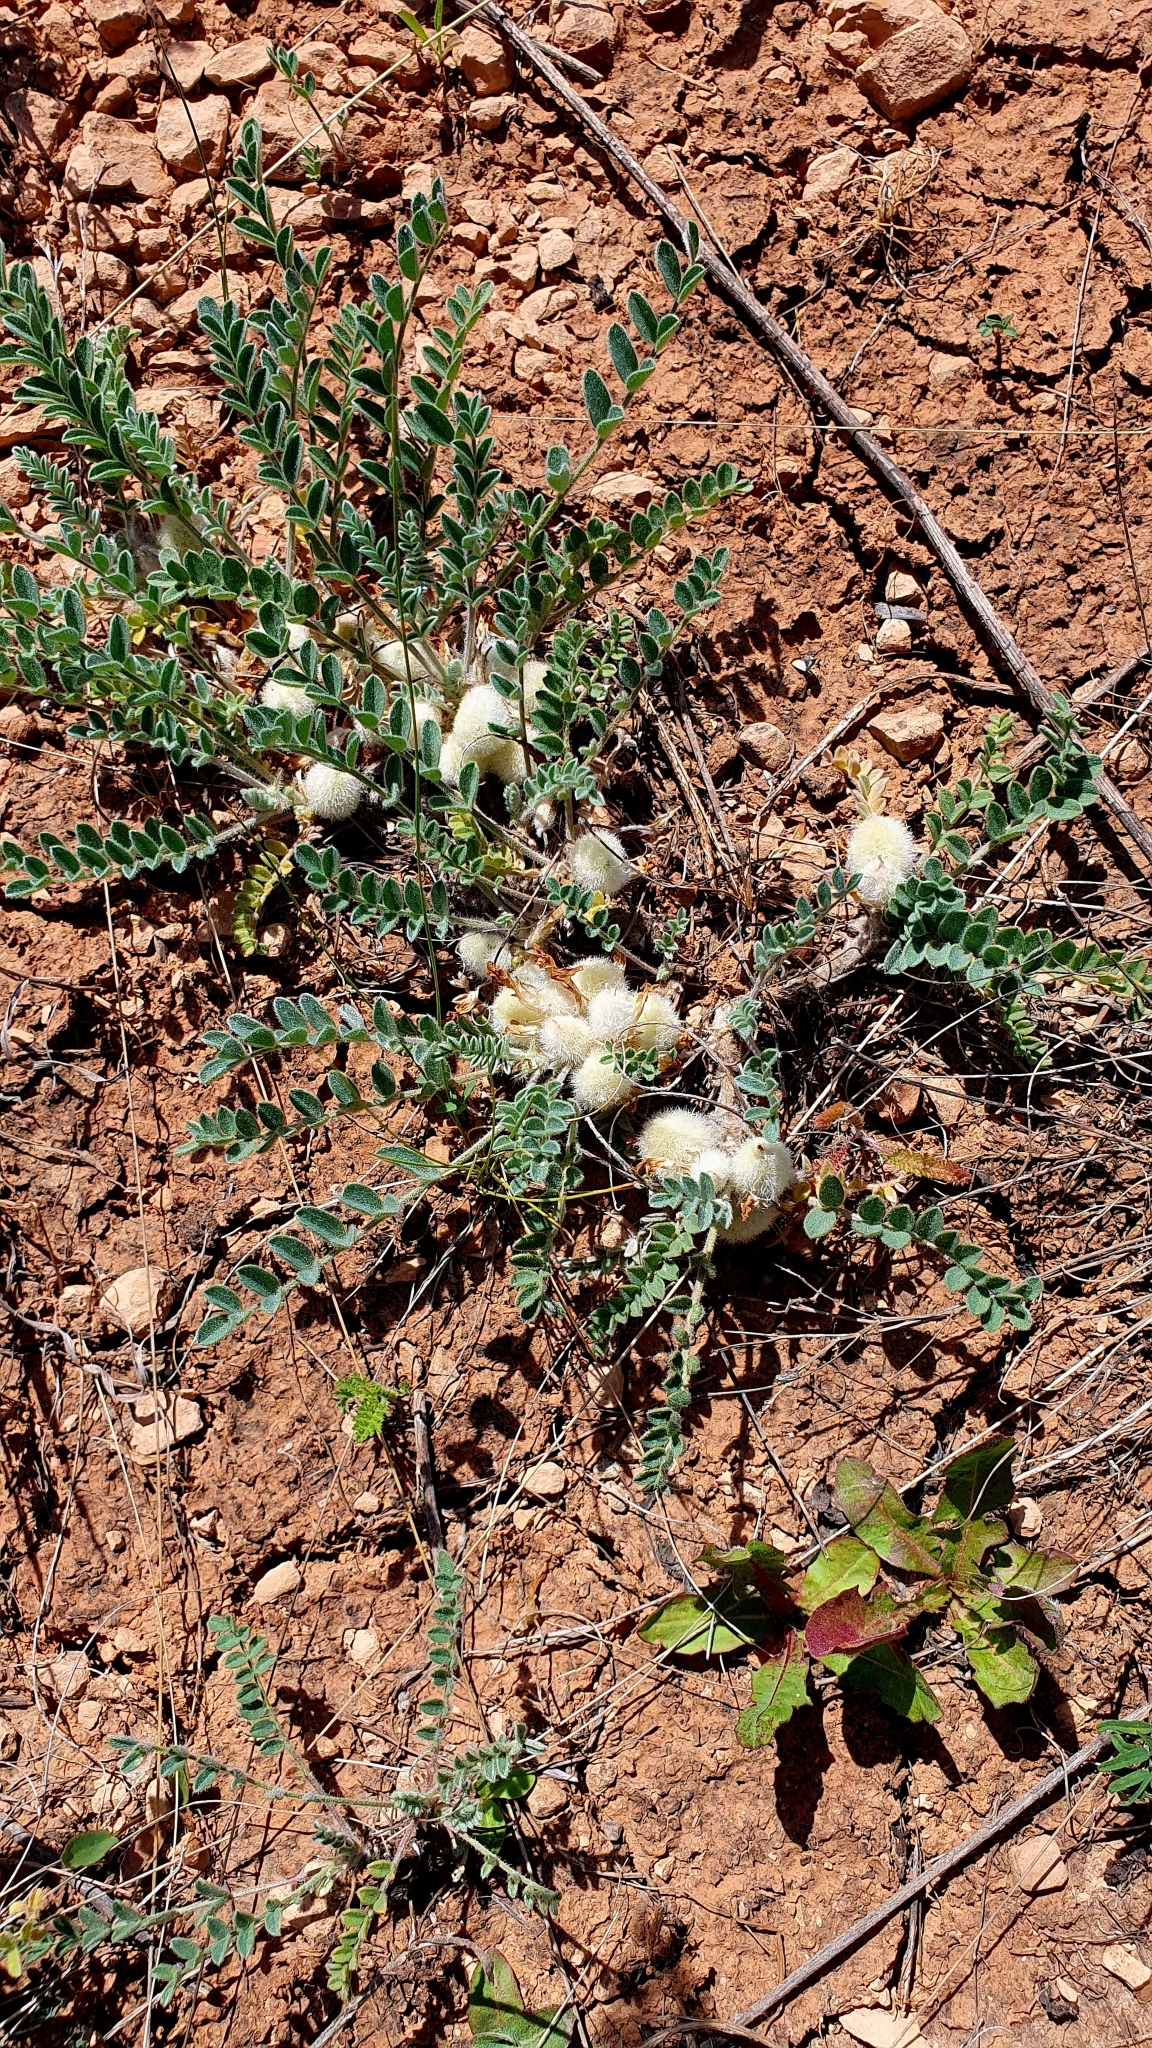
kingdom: Plantae
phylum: Tracheophyta
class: Magnoliopsida
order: Fabales
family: Fabaceae
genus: Astragalus
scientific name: Astragalus testiculatus
